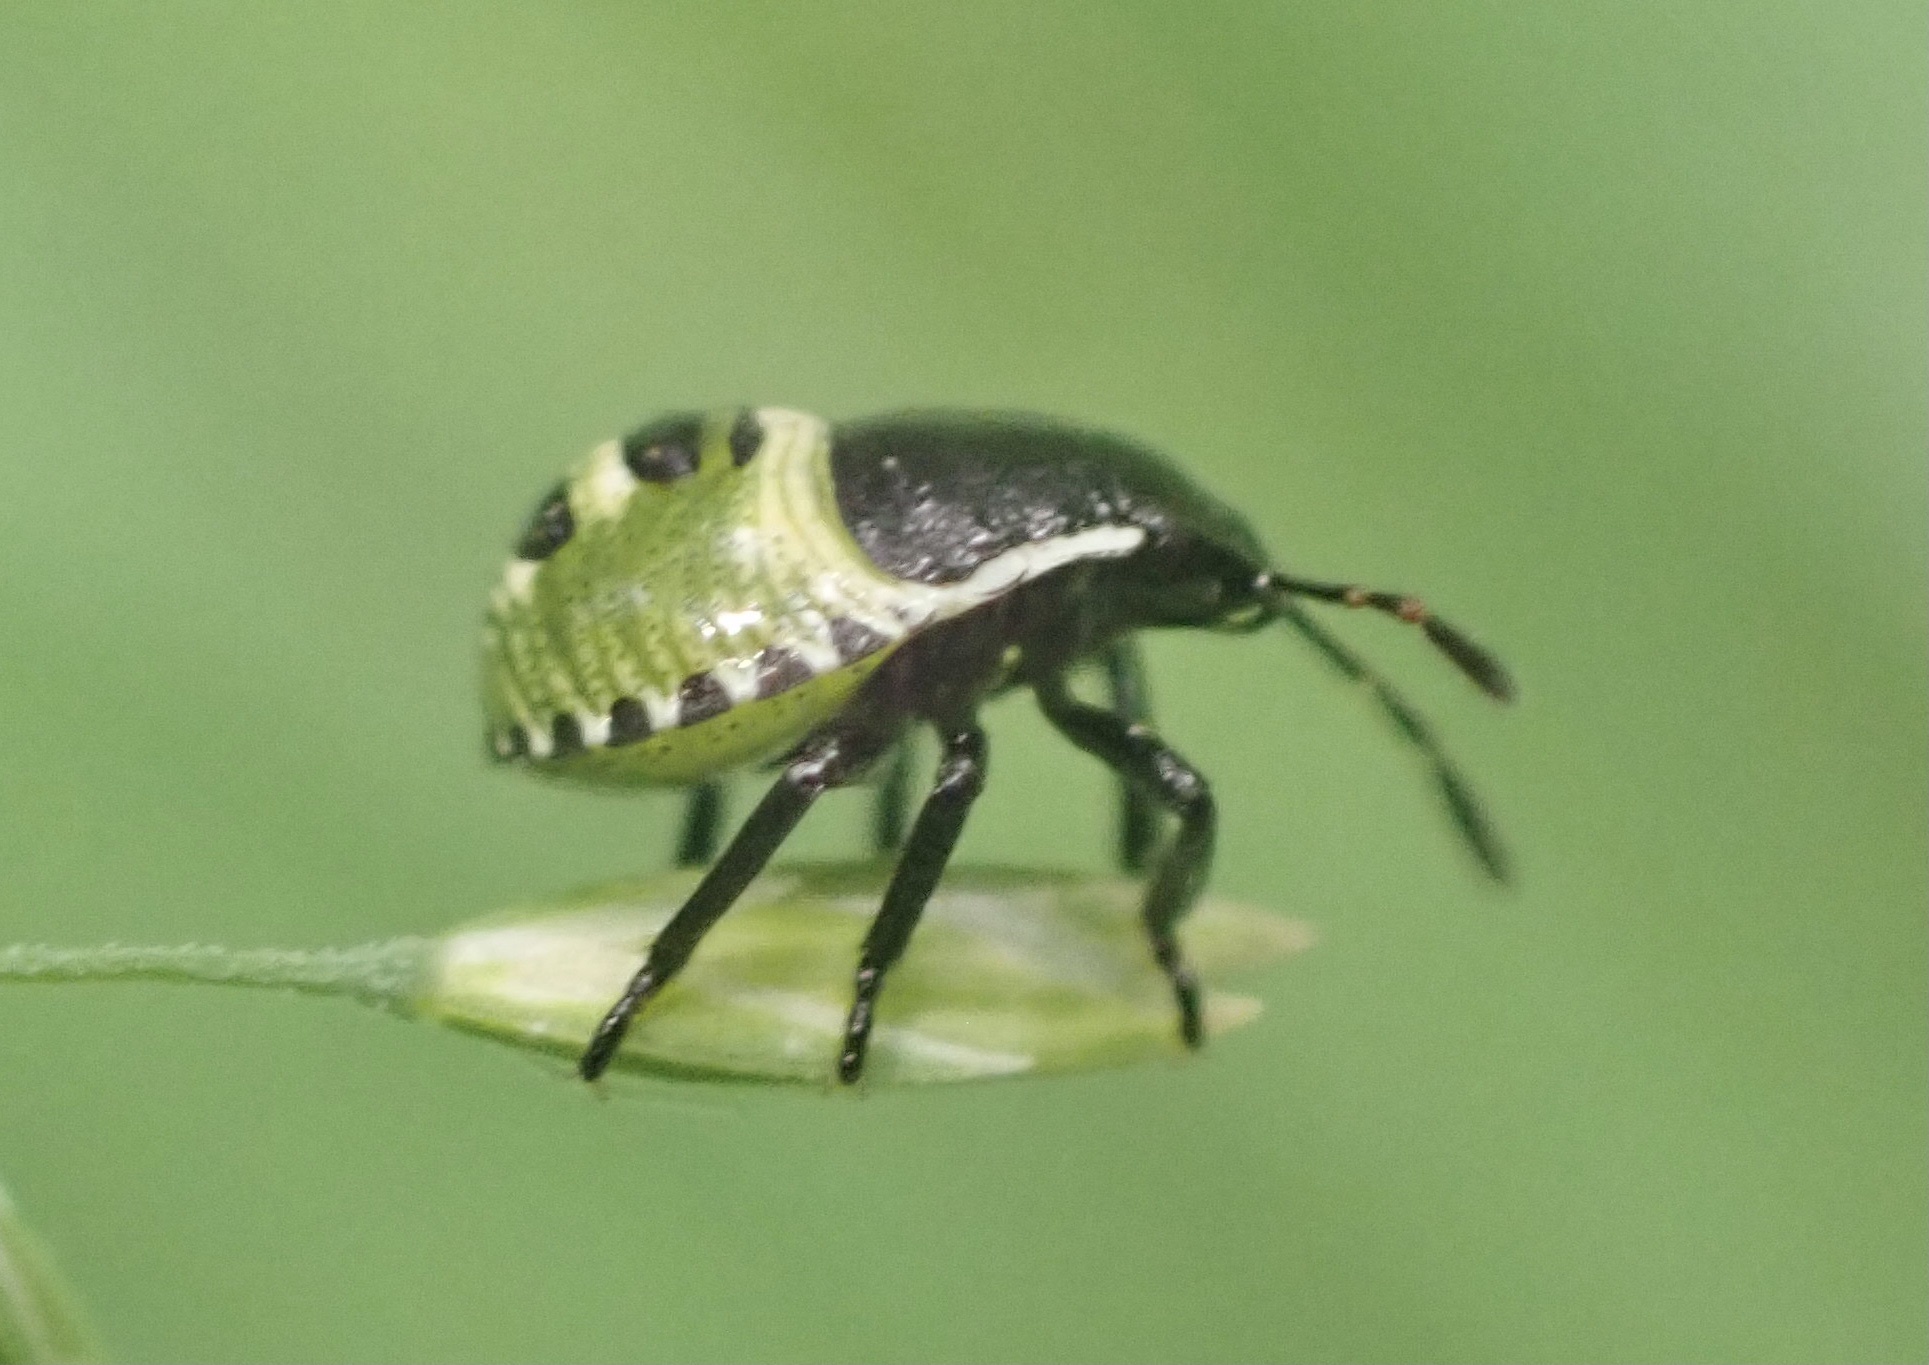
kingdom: Animalia
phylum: Arthropoda
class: Insecta
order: Hemiptera
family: Pentatomidae
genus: Palomena
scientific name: Palomena prasina
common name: Green shieldbug
